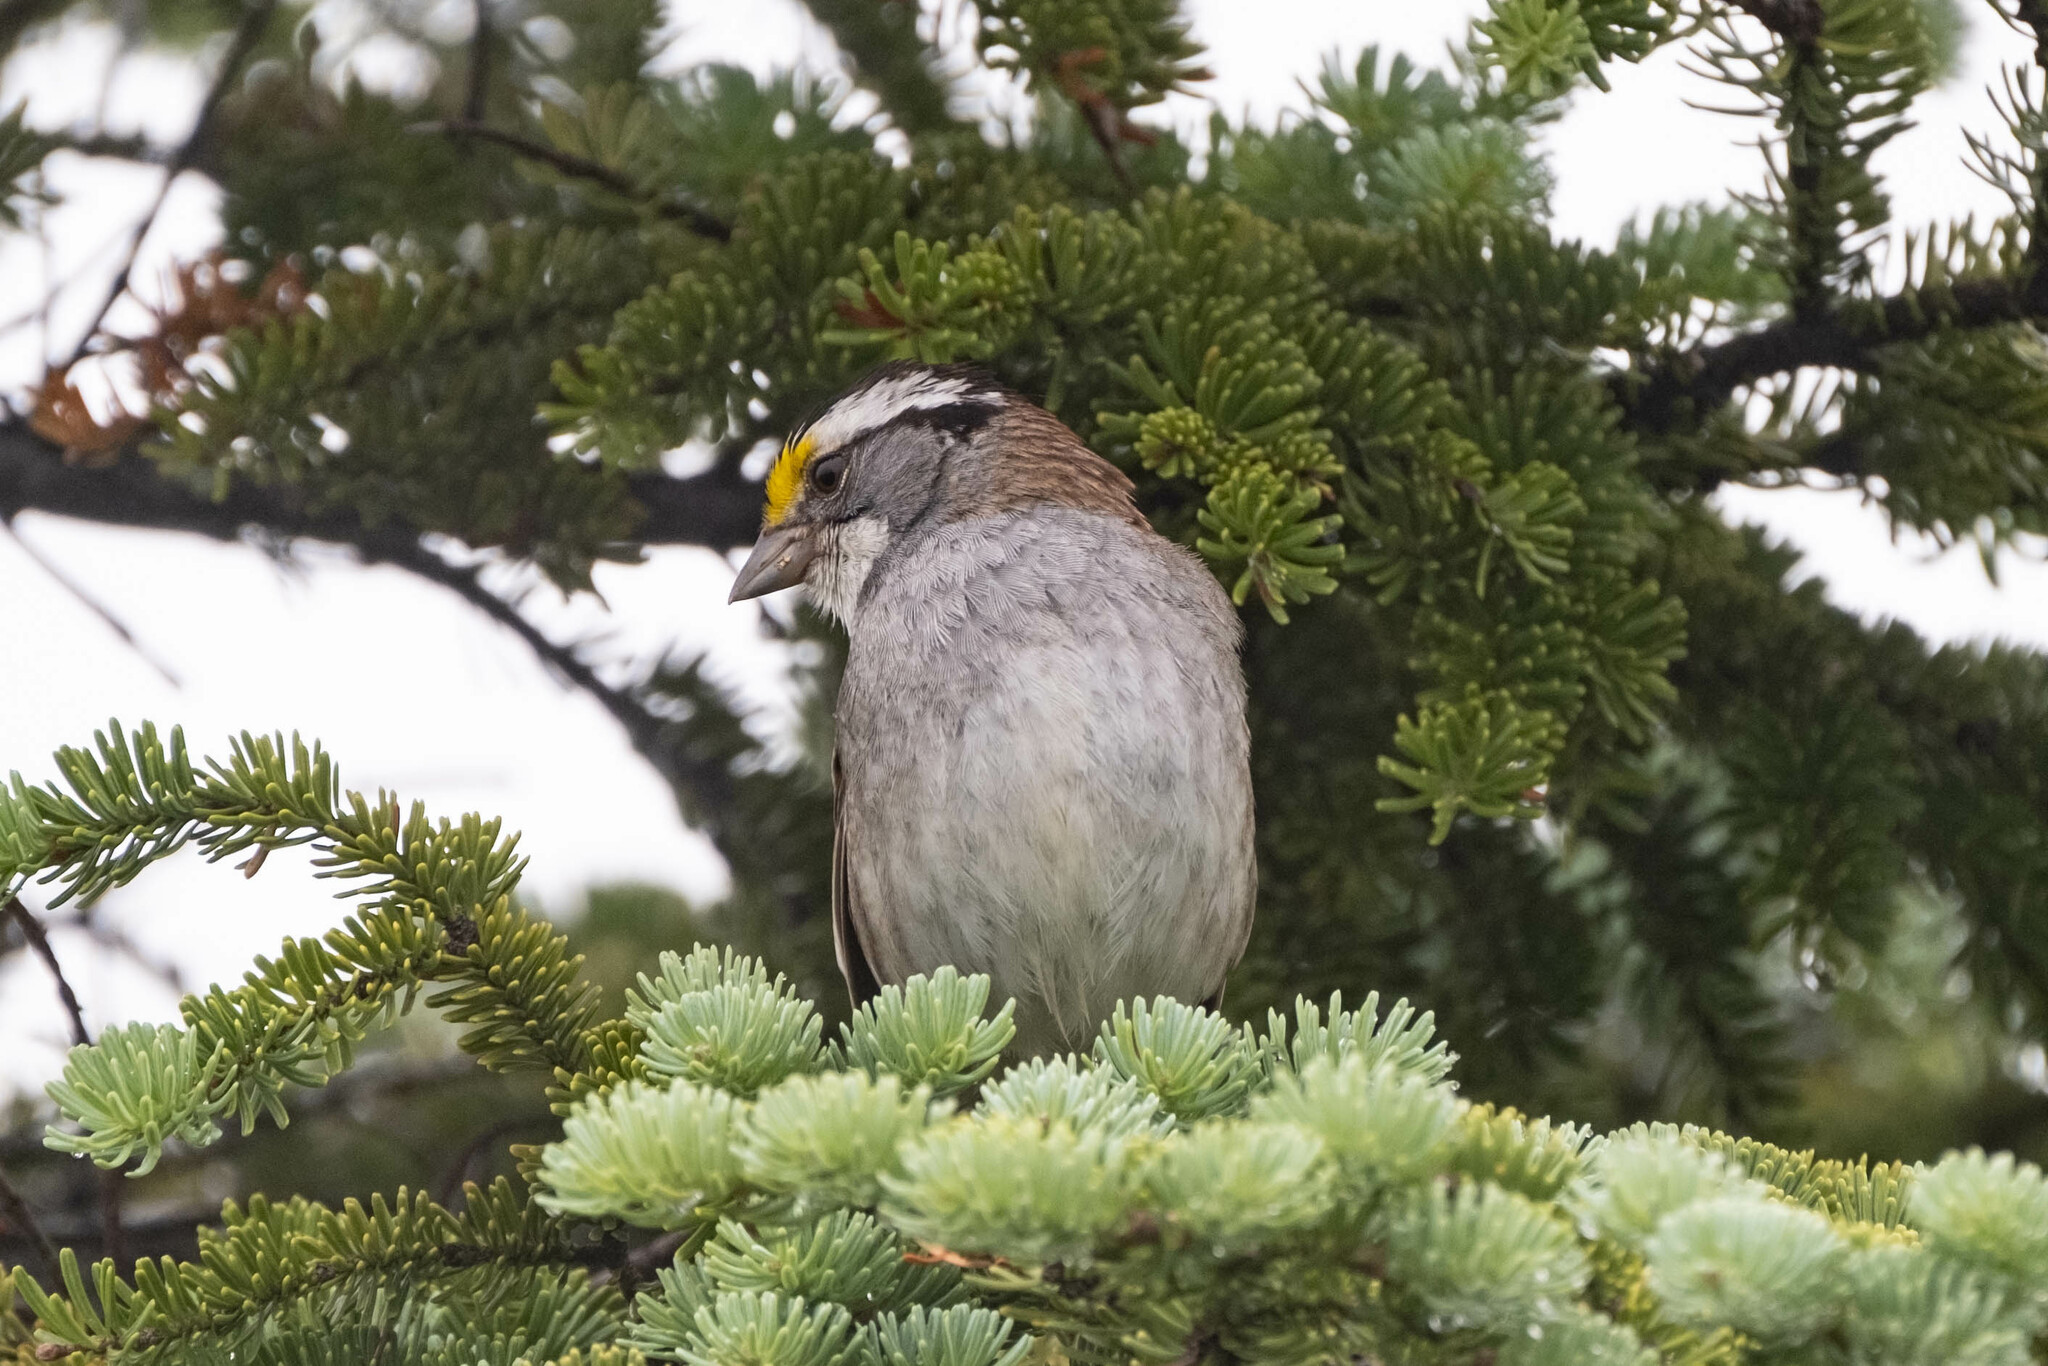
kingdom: Animalia
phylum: Chordata
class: Aves
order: Passeriformes
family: Passerellidae
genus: Zonotrichia
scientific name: Zonotrichia albicollis
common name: White-throated sparrow
